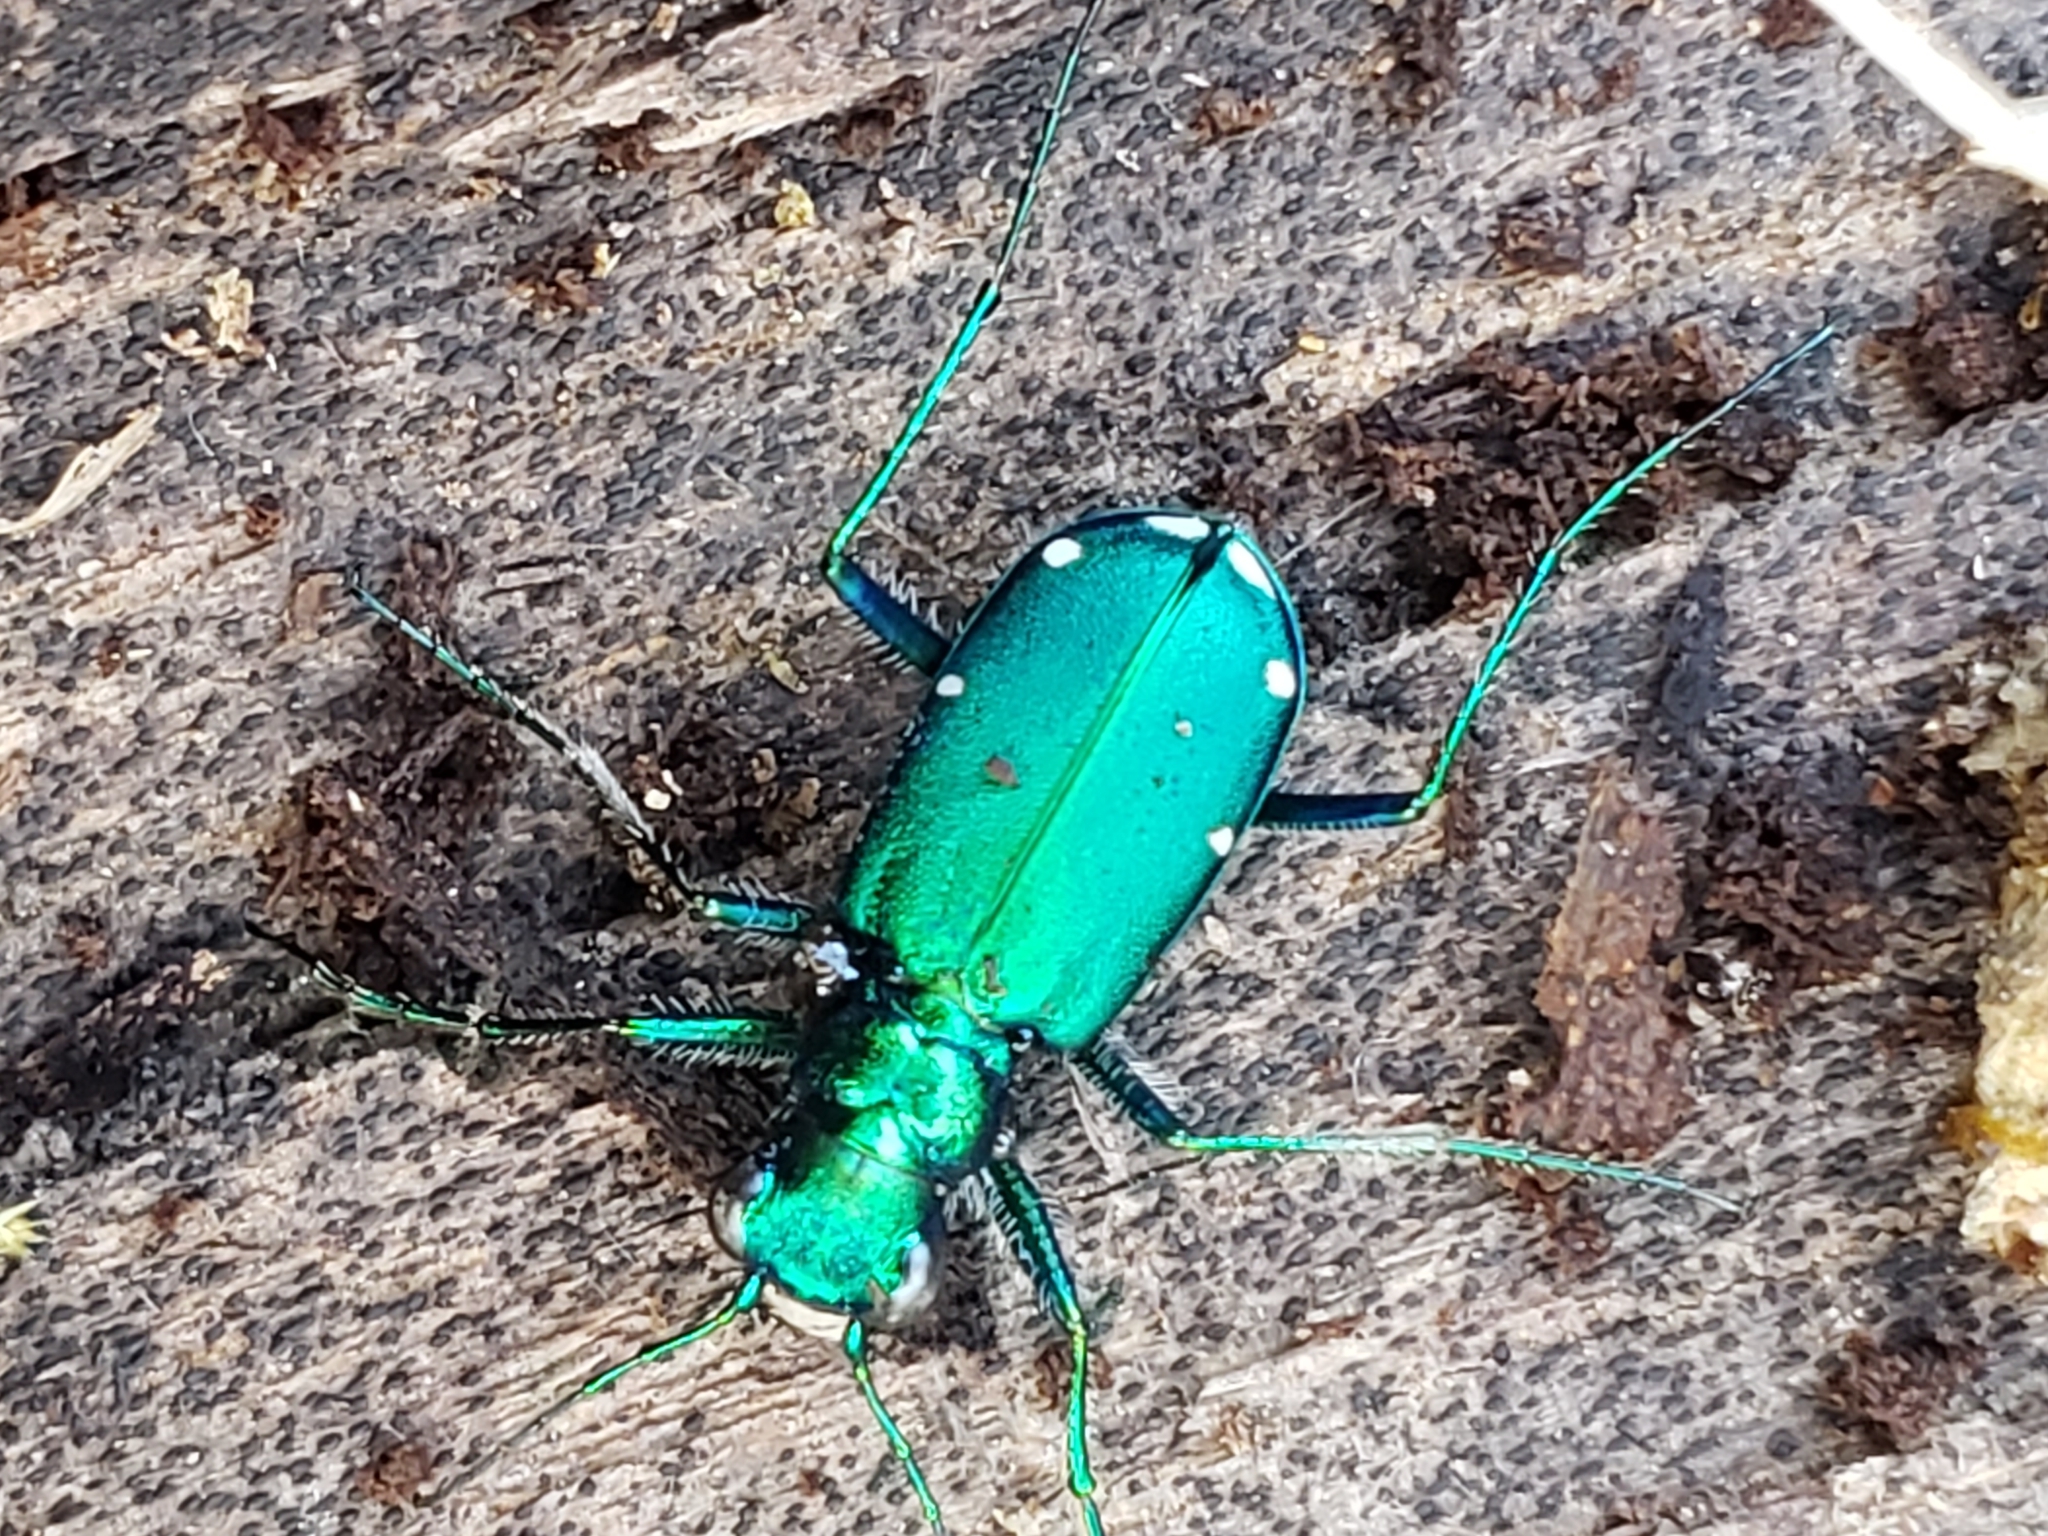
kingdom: Animalia
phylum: Arthropoda
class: Insecta
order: Coleoptera
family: Carabidae
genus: Cicindela
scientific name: Cicindela sexguttata
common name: Six-spotted tiger beetle
